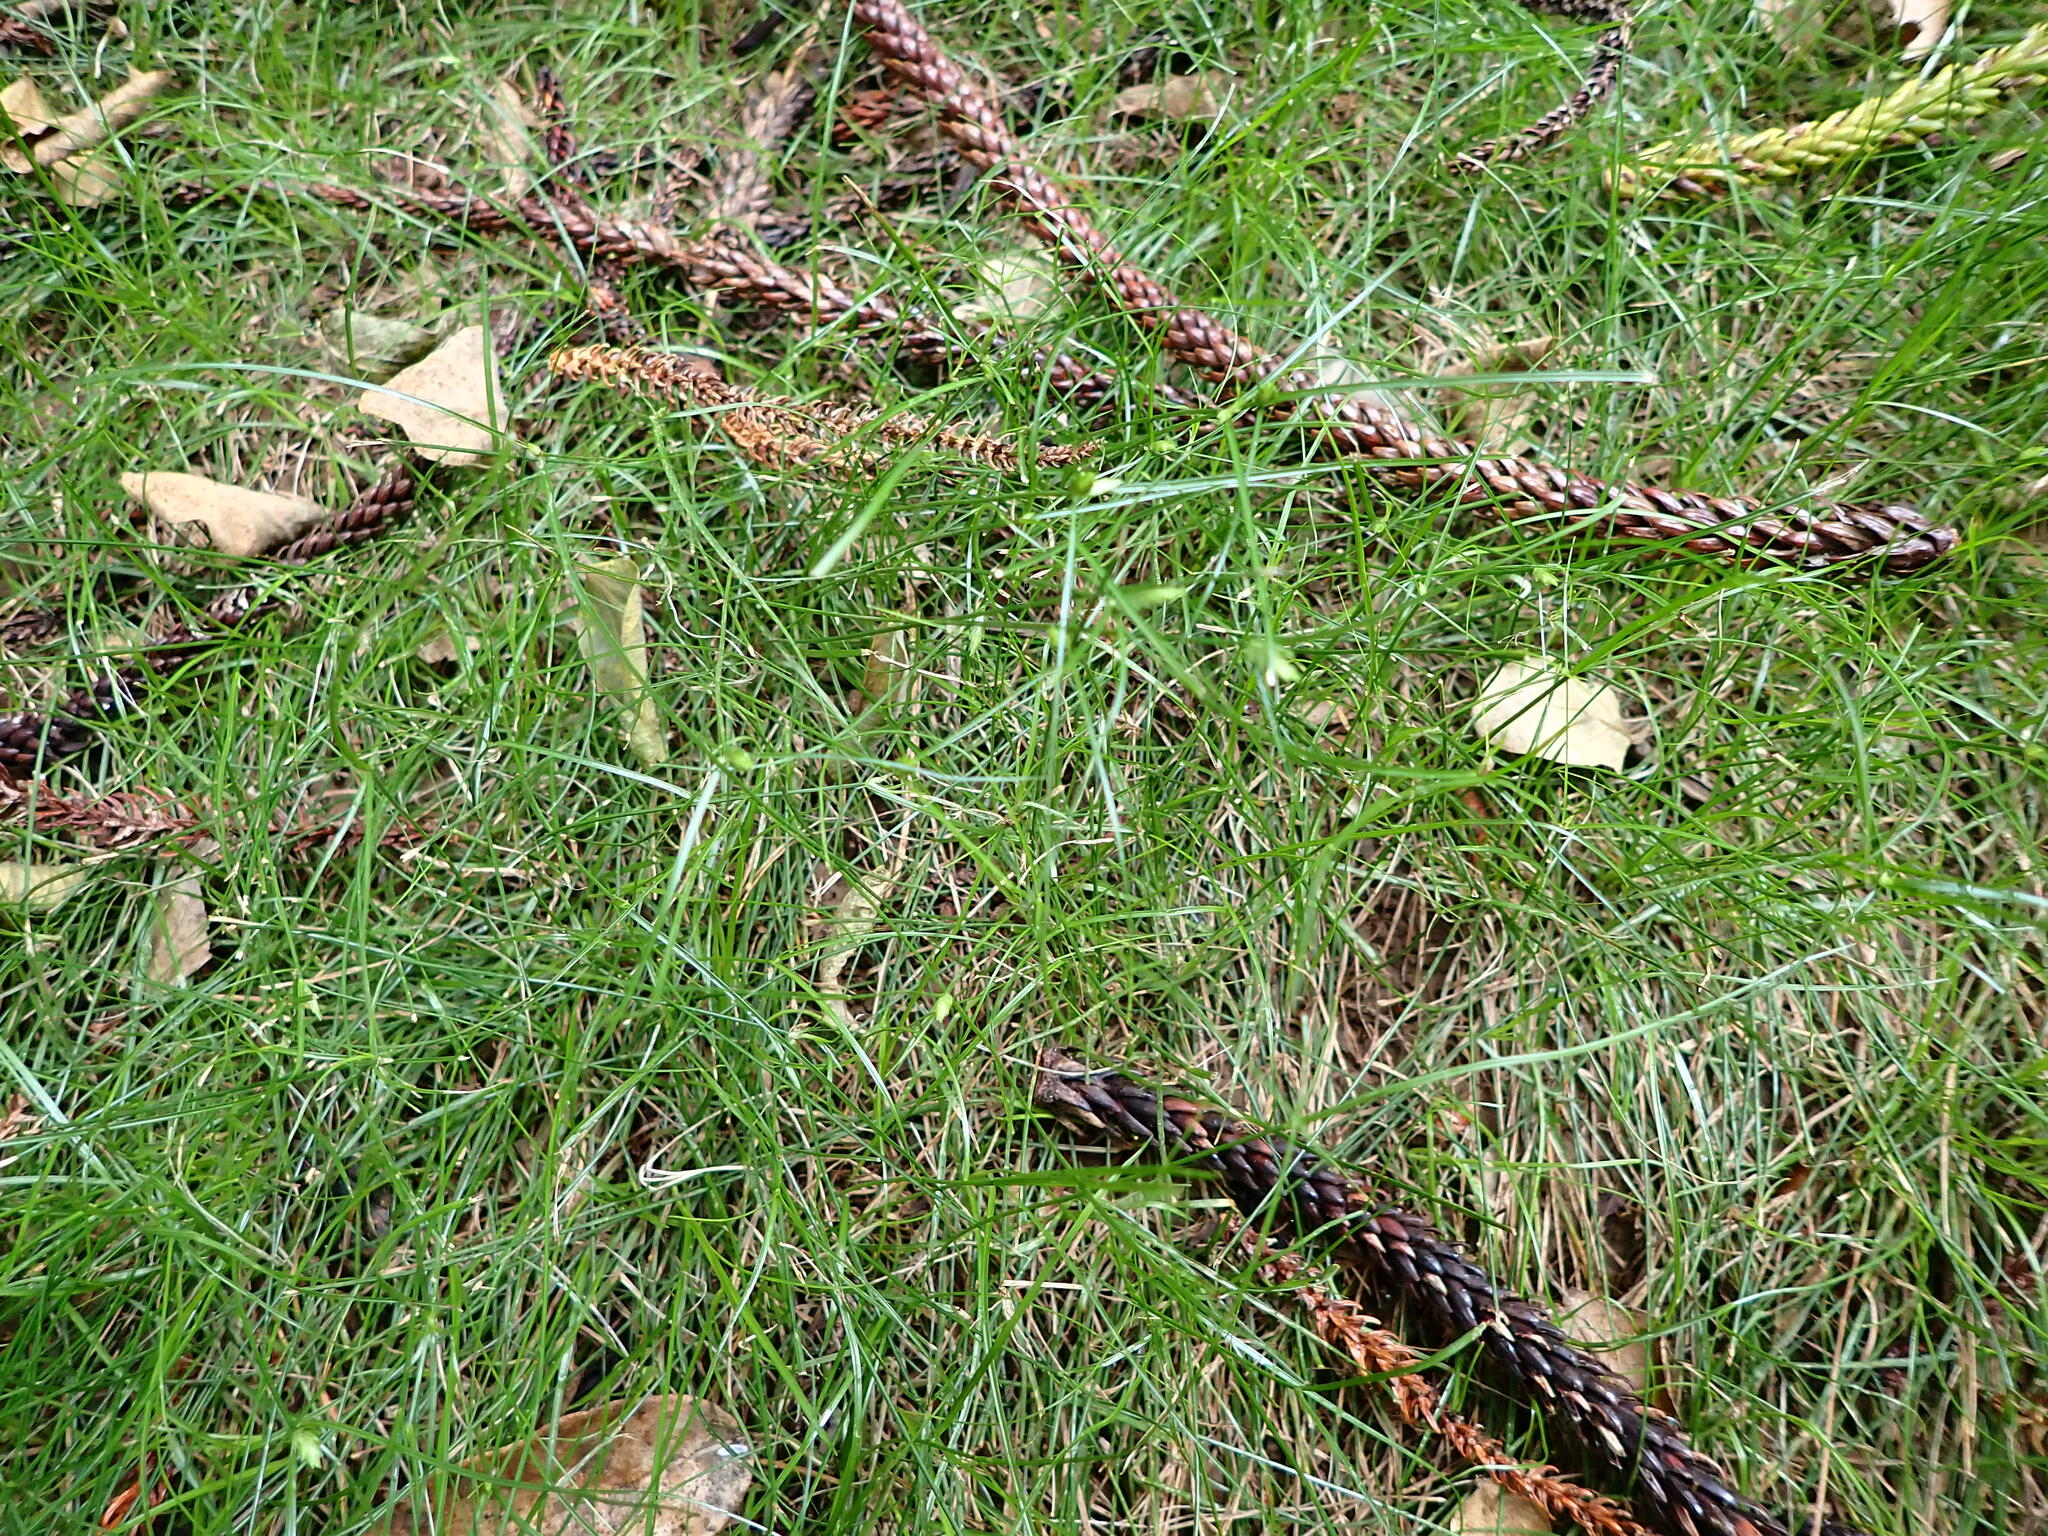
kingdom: Plantae
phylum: Tracheophyta
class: Liliopsida
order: Poales
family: Cyperaceae
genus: Cyperus
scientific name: Cyperus gracilis
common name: Slimjim flatsedge
